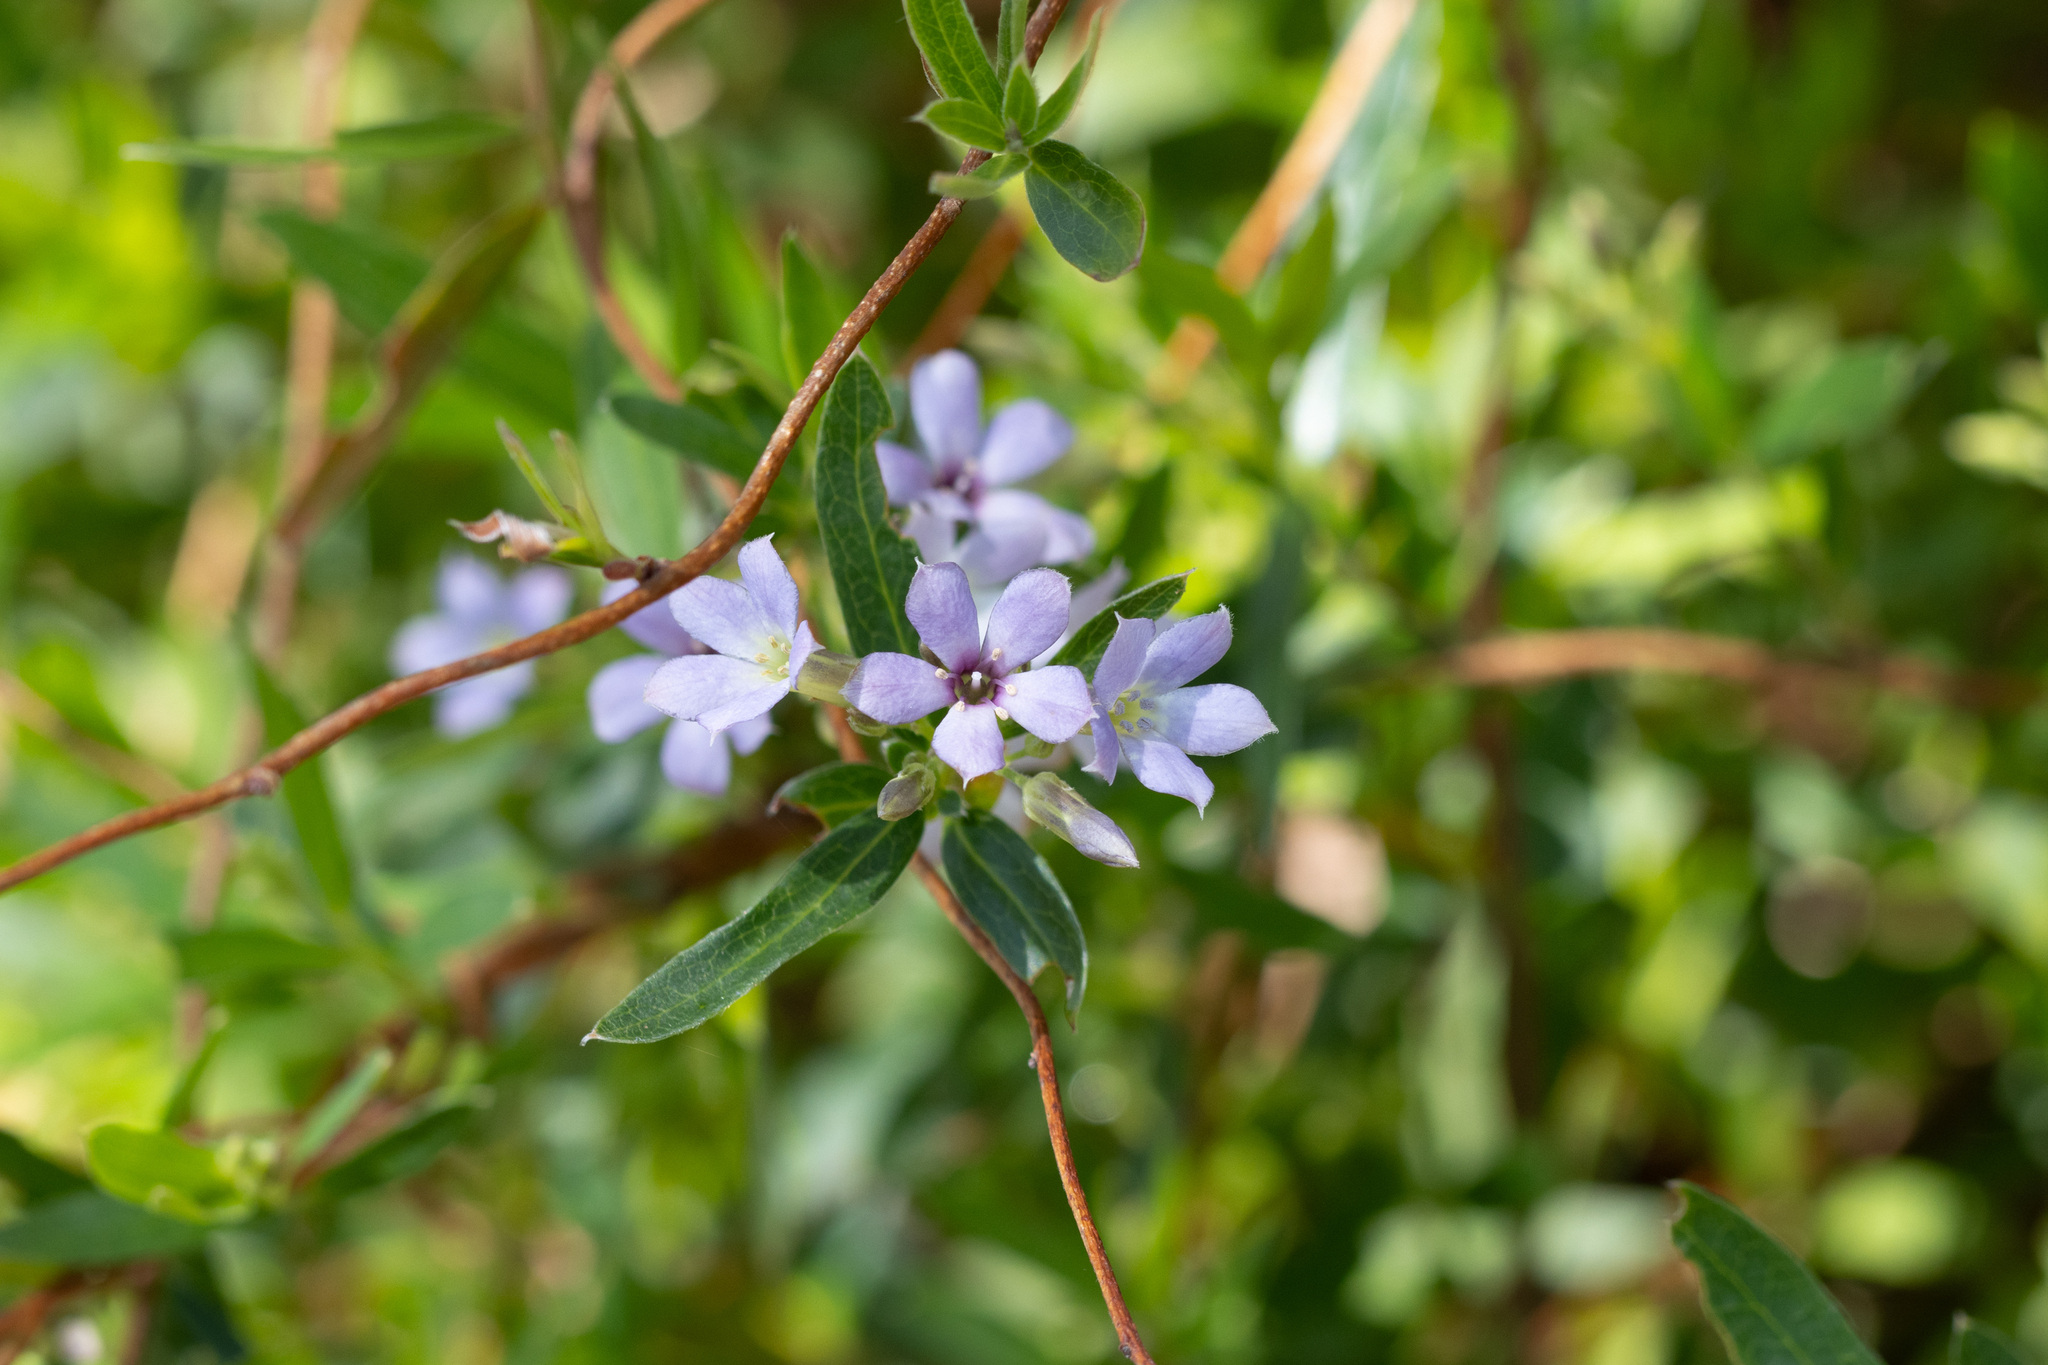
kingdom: Plantae
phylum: Tracheophyta
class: Magnoliopsida
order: Apiales
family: Pittosporaceae
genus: Billardiera
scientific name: Billardiera cymosa
